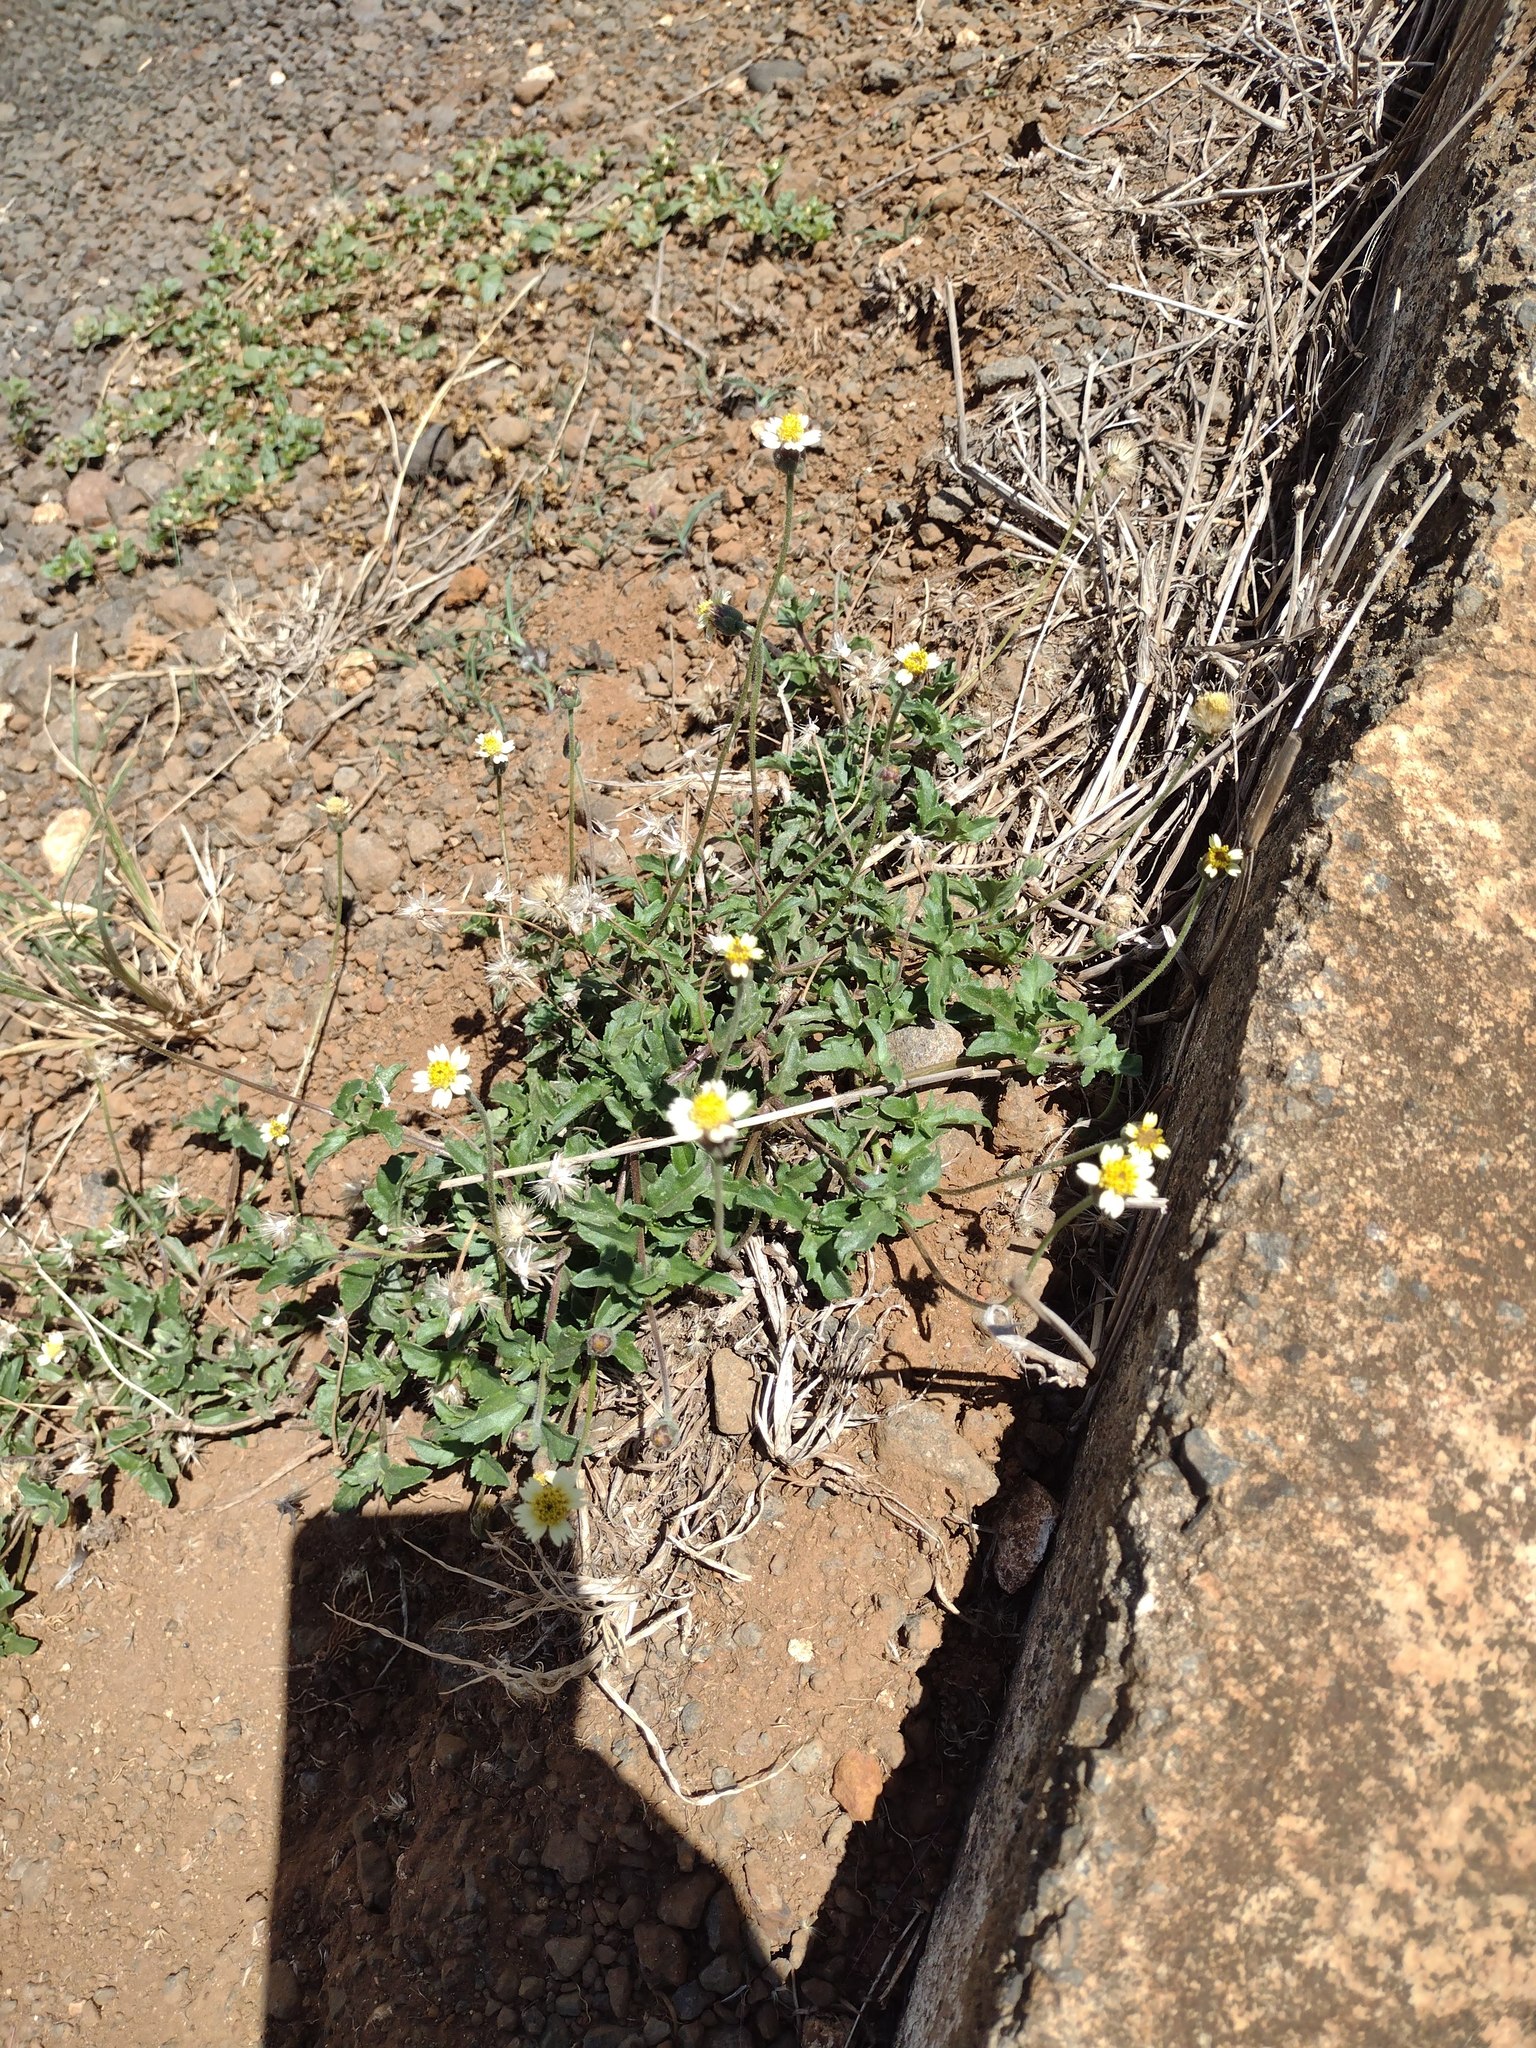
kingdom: Plantae
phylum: Tracheophyta
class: Magnoliopsida
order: Asterales
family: Asteraceae
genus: Tridax
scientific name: Tridax procumbens
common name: Coatbuttons
